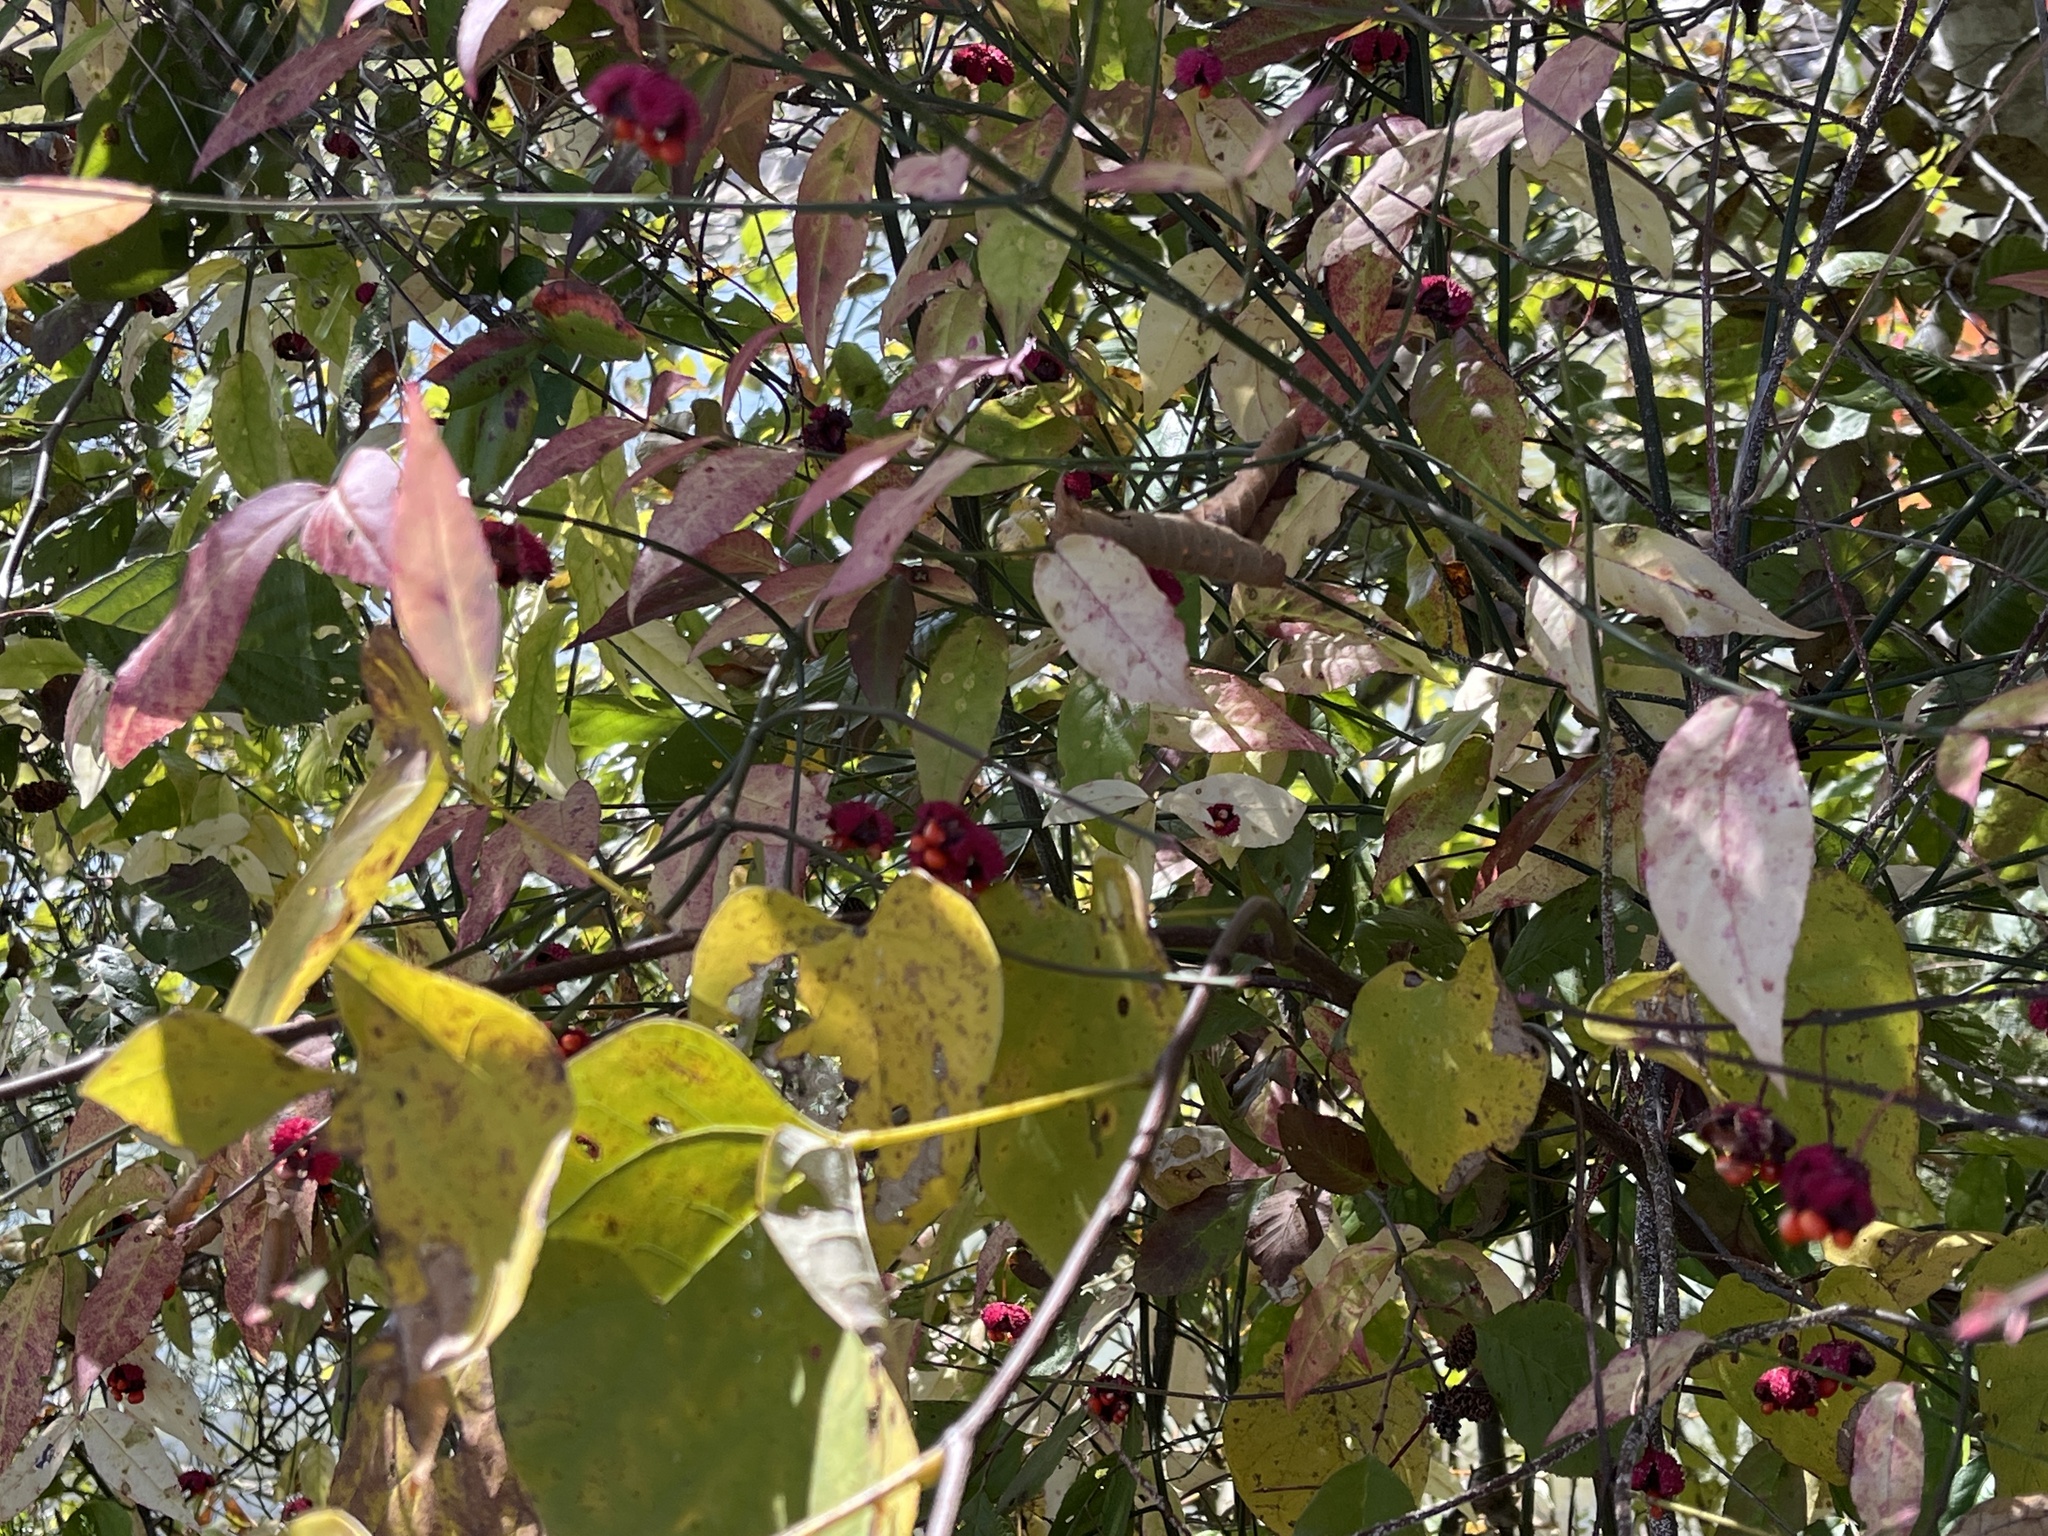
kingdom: Plantae
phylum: Tracheophyta
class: Magnoliopsida
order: Celastrales
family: Celastraceae
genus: Euonymus
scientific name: Euonymus americanus
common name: Bursting-heart
